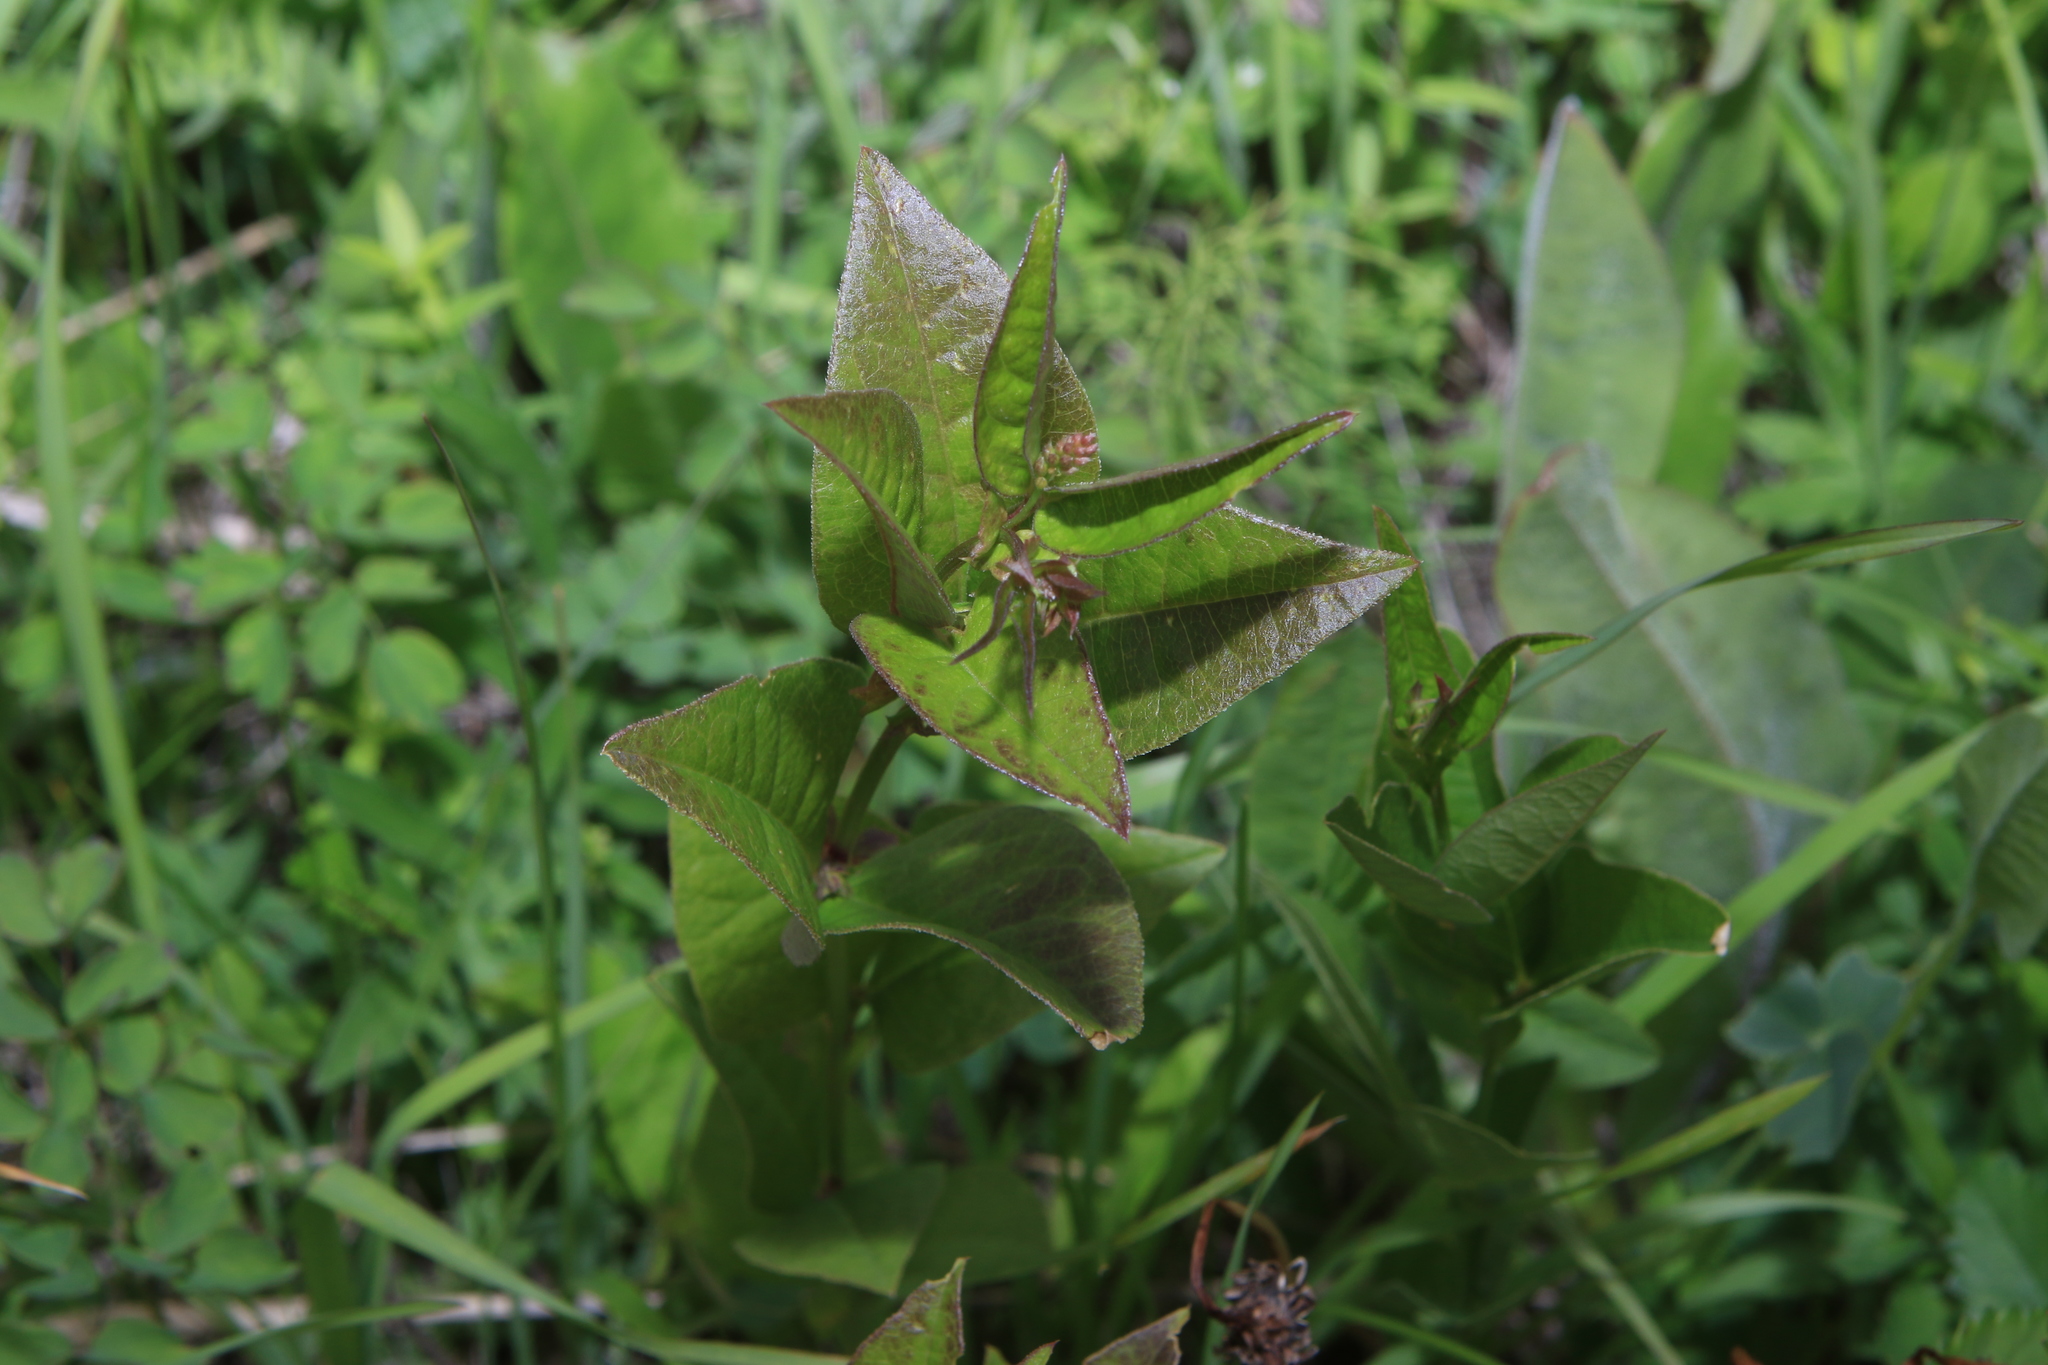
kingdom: Plantae
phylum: Tracheophyta
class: Magnoliopsida
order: Fabales
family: Fabaceae
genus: Vicia
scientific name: Vicia unijuga
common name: Two-leaf vetch
